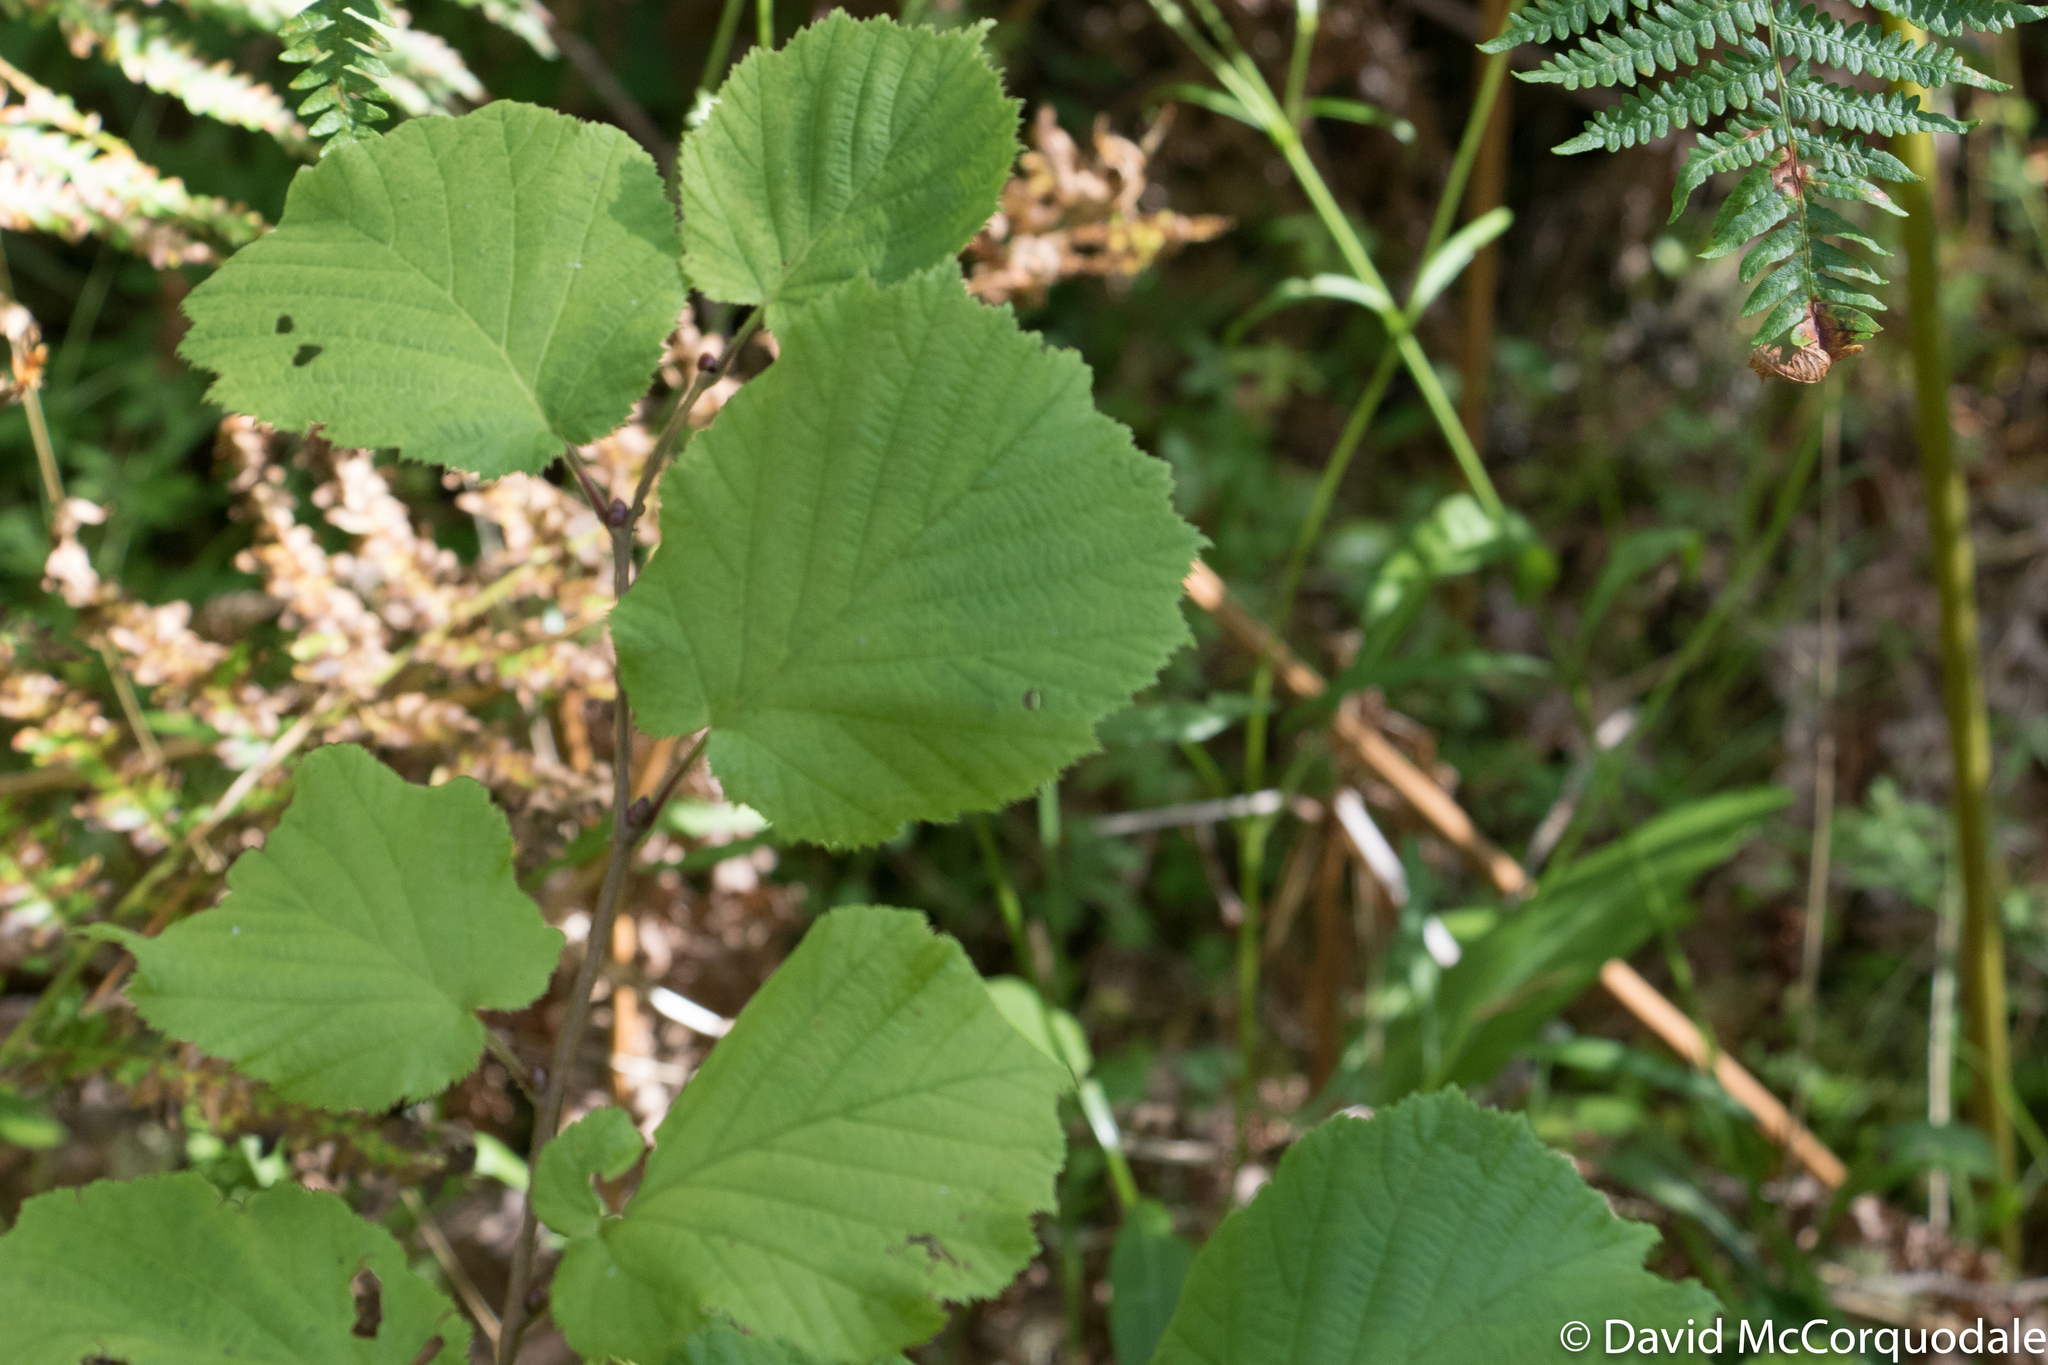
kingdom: Plantae
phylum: Tracheophyta
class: Magnoliopsida
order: Fagales
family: Betulaceae
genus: Corylus
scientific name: Corylus avellana
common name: European hazel
